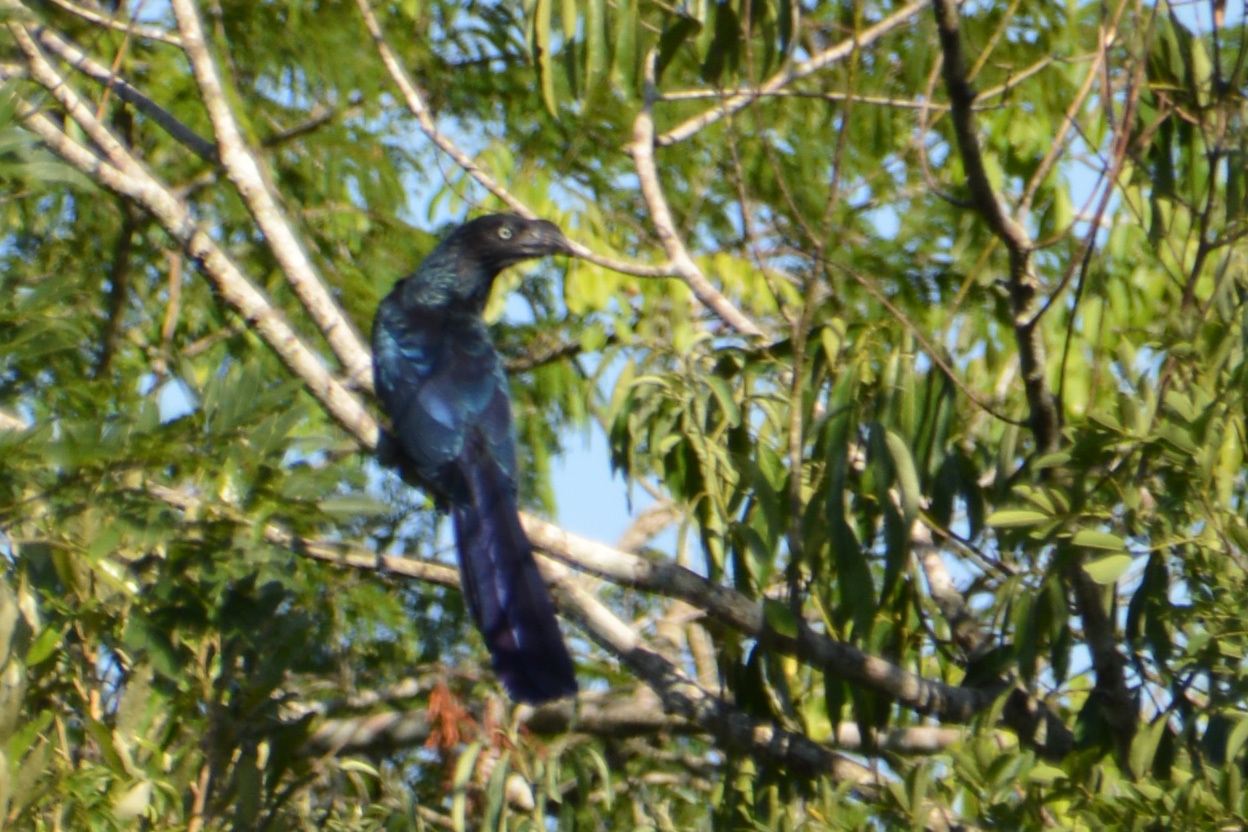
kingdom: Animalia
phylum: Chordata
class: Aves
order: Cuculiformes
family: Cuculidae
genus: Crotophaga
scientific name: Crotophaga major
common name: Greater ani
